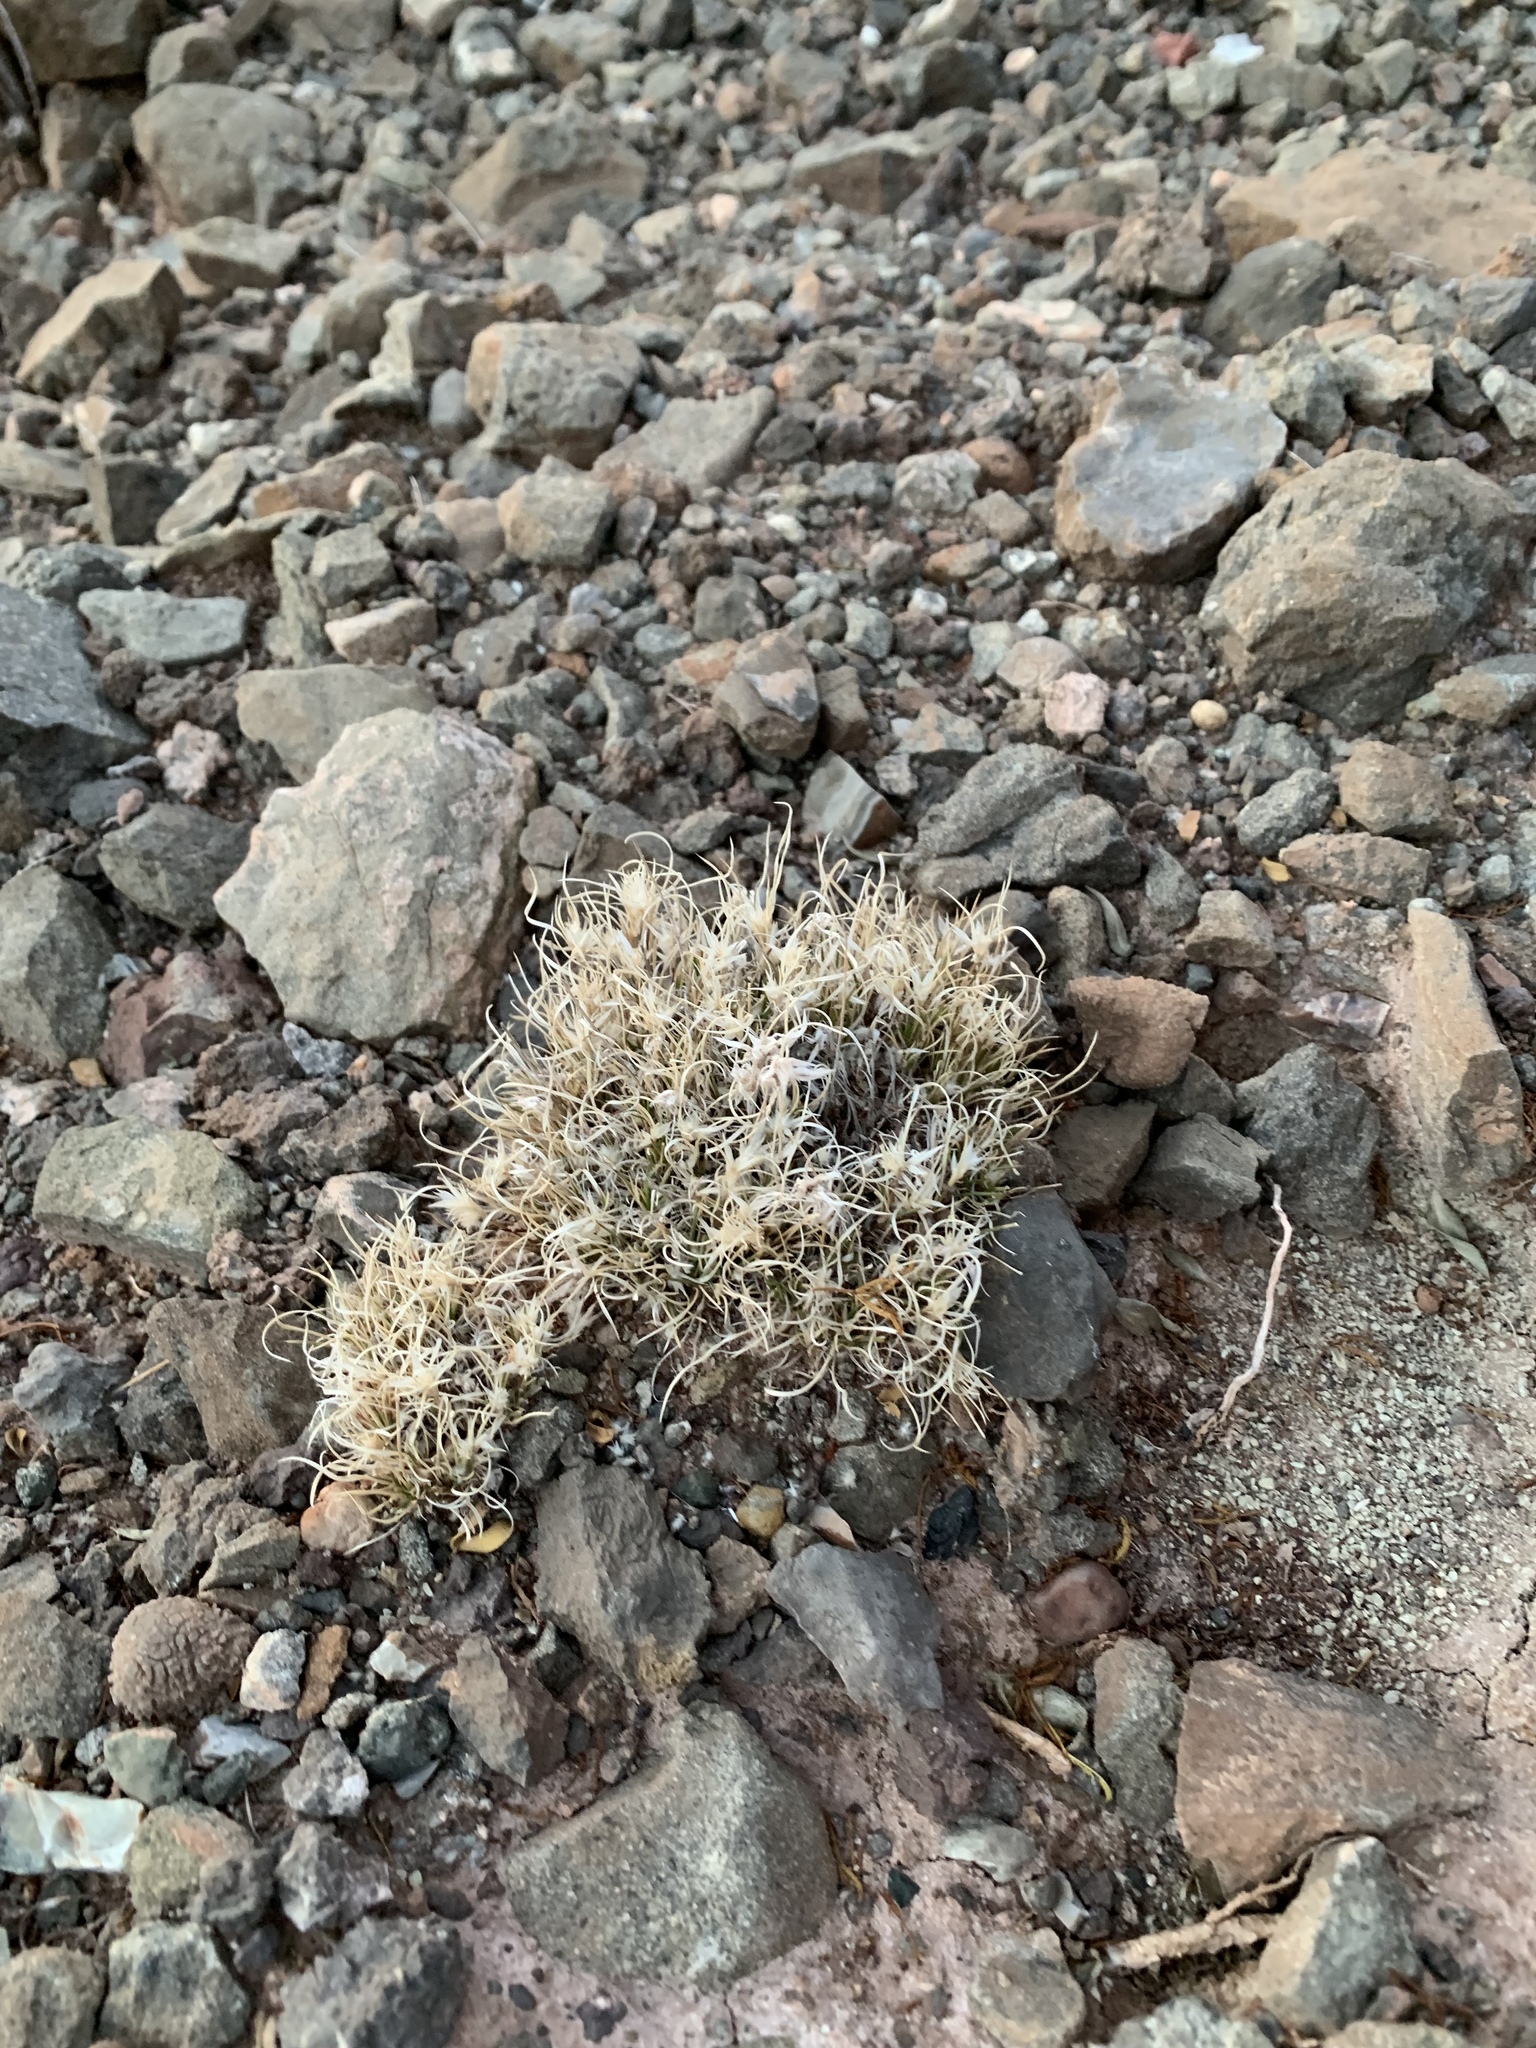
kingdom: Plantae
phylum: Tracheophyta
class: Liliopsida
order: Poales
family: Poaceae
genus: Dasyochloa
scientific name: Dasyochloa pulchella
